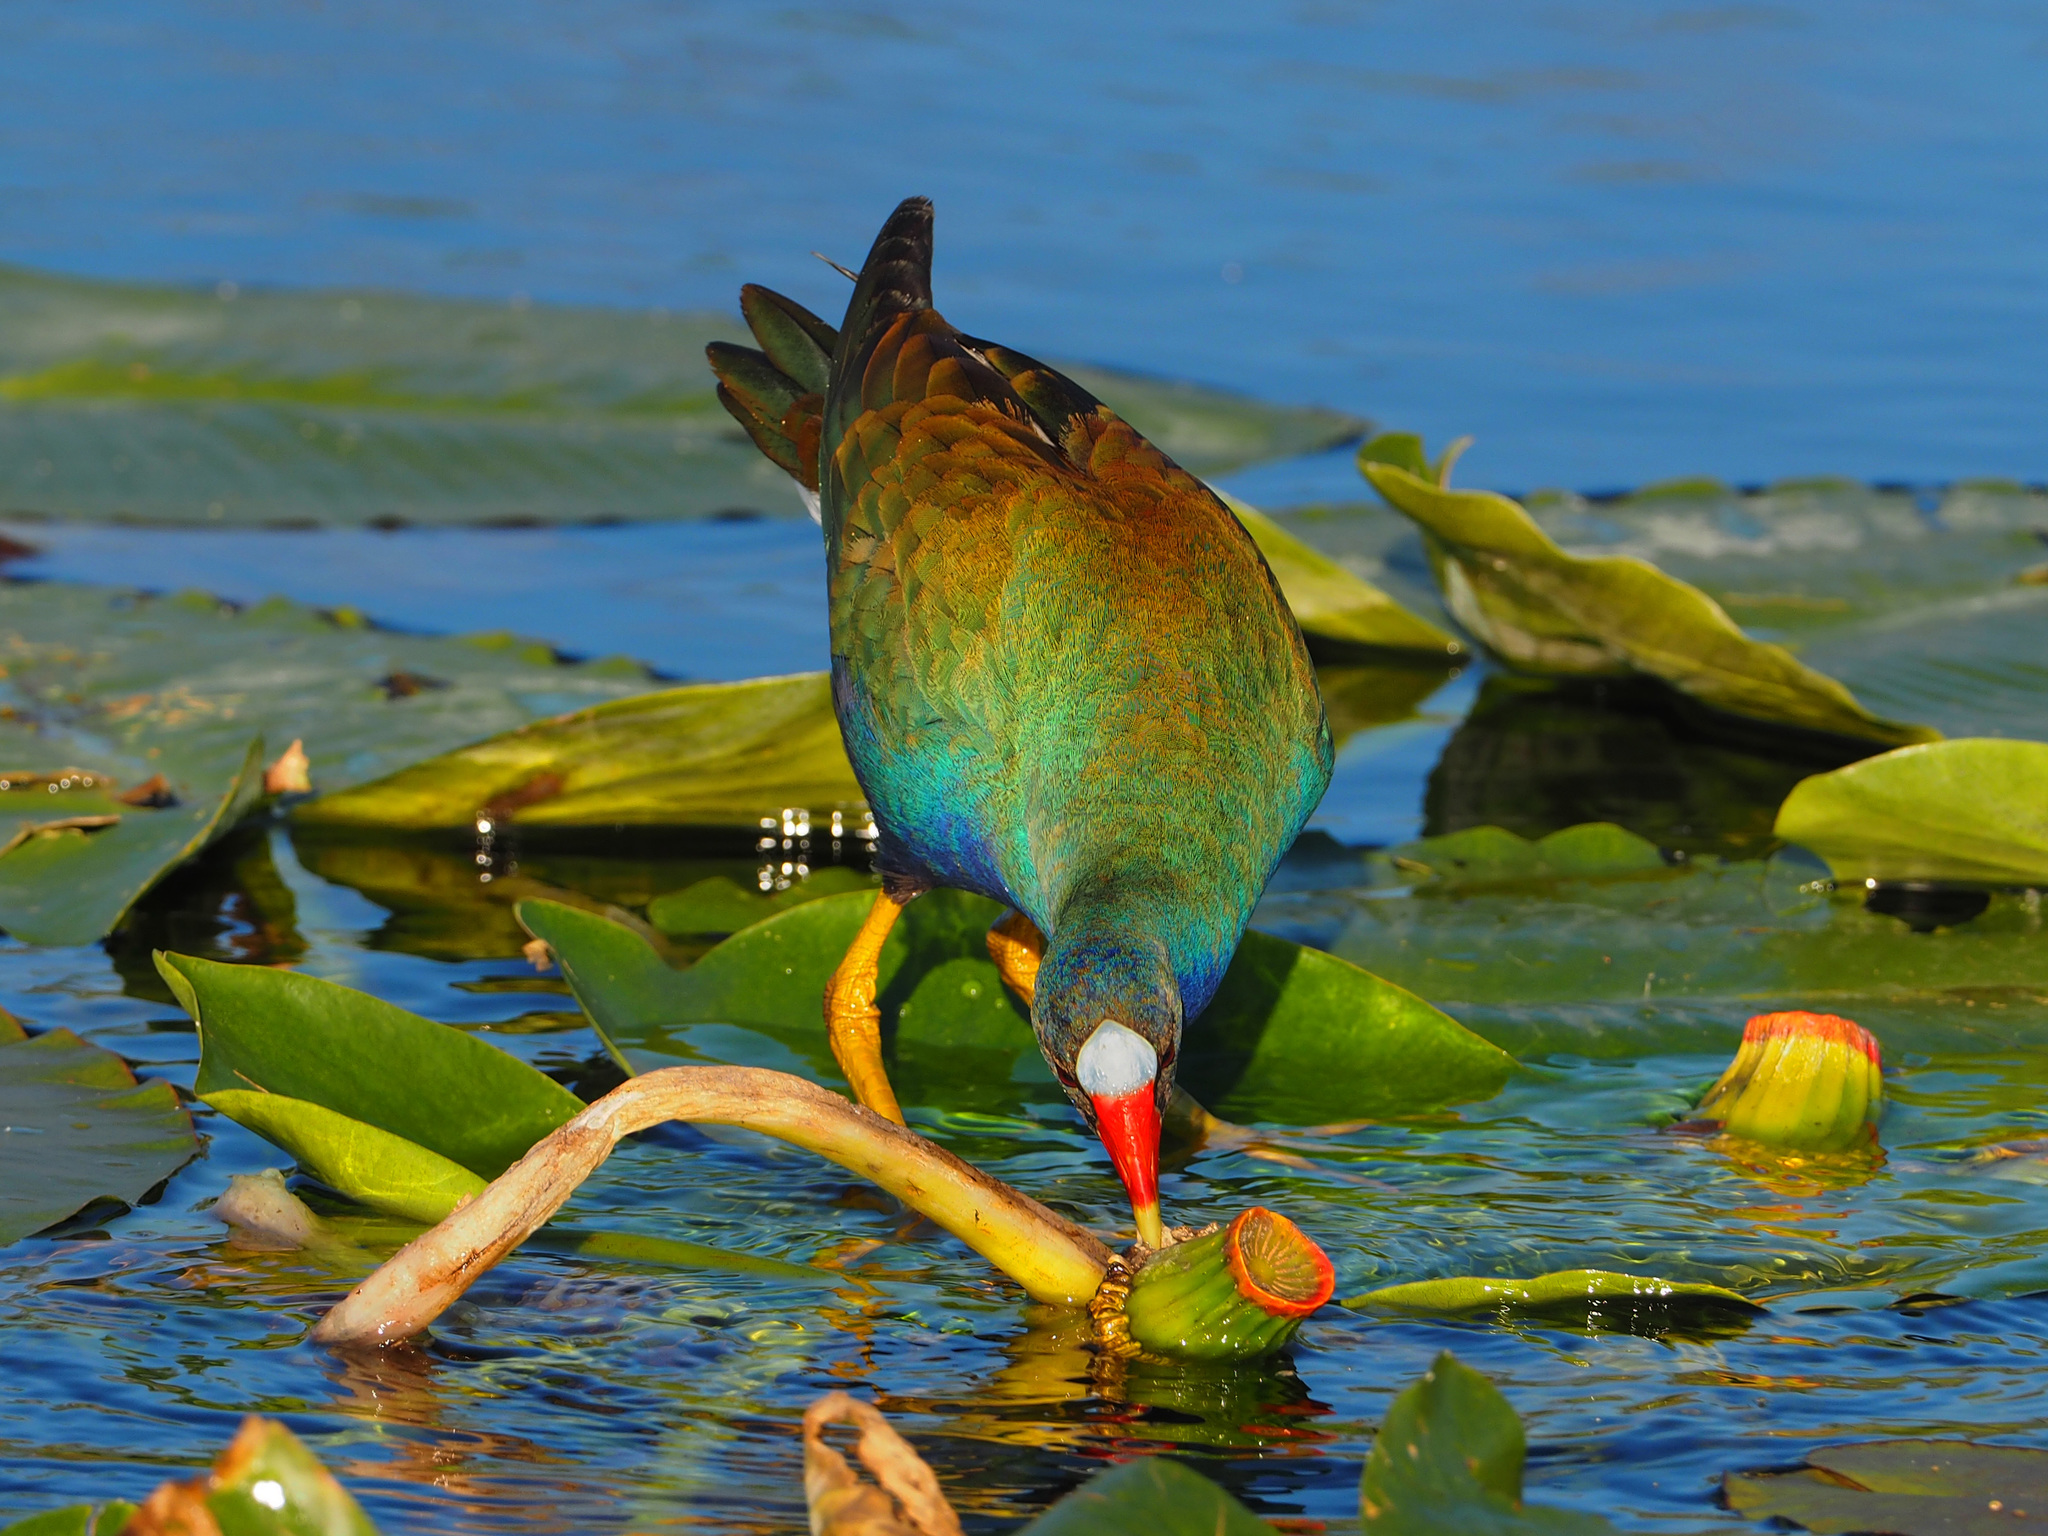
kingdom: Animalia
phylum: Chordata
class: Aves
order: Gruiformes
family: Rallidae
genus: Porphyrio
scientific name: Porphyrio martinica
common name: Purple gallinule
